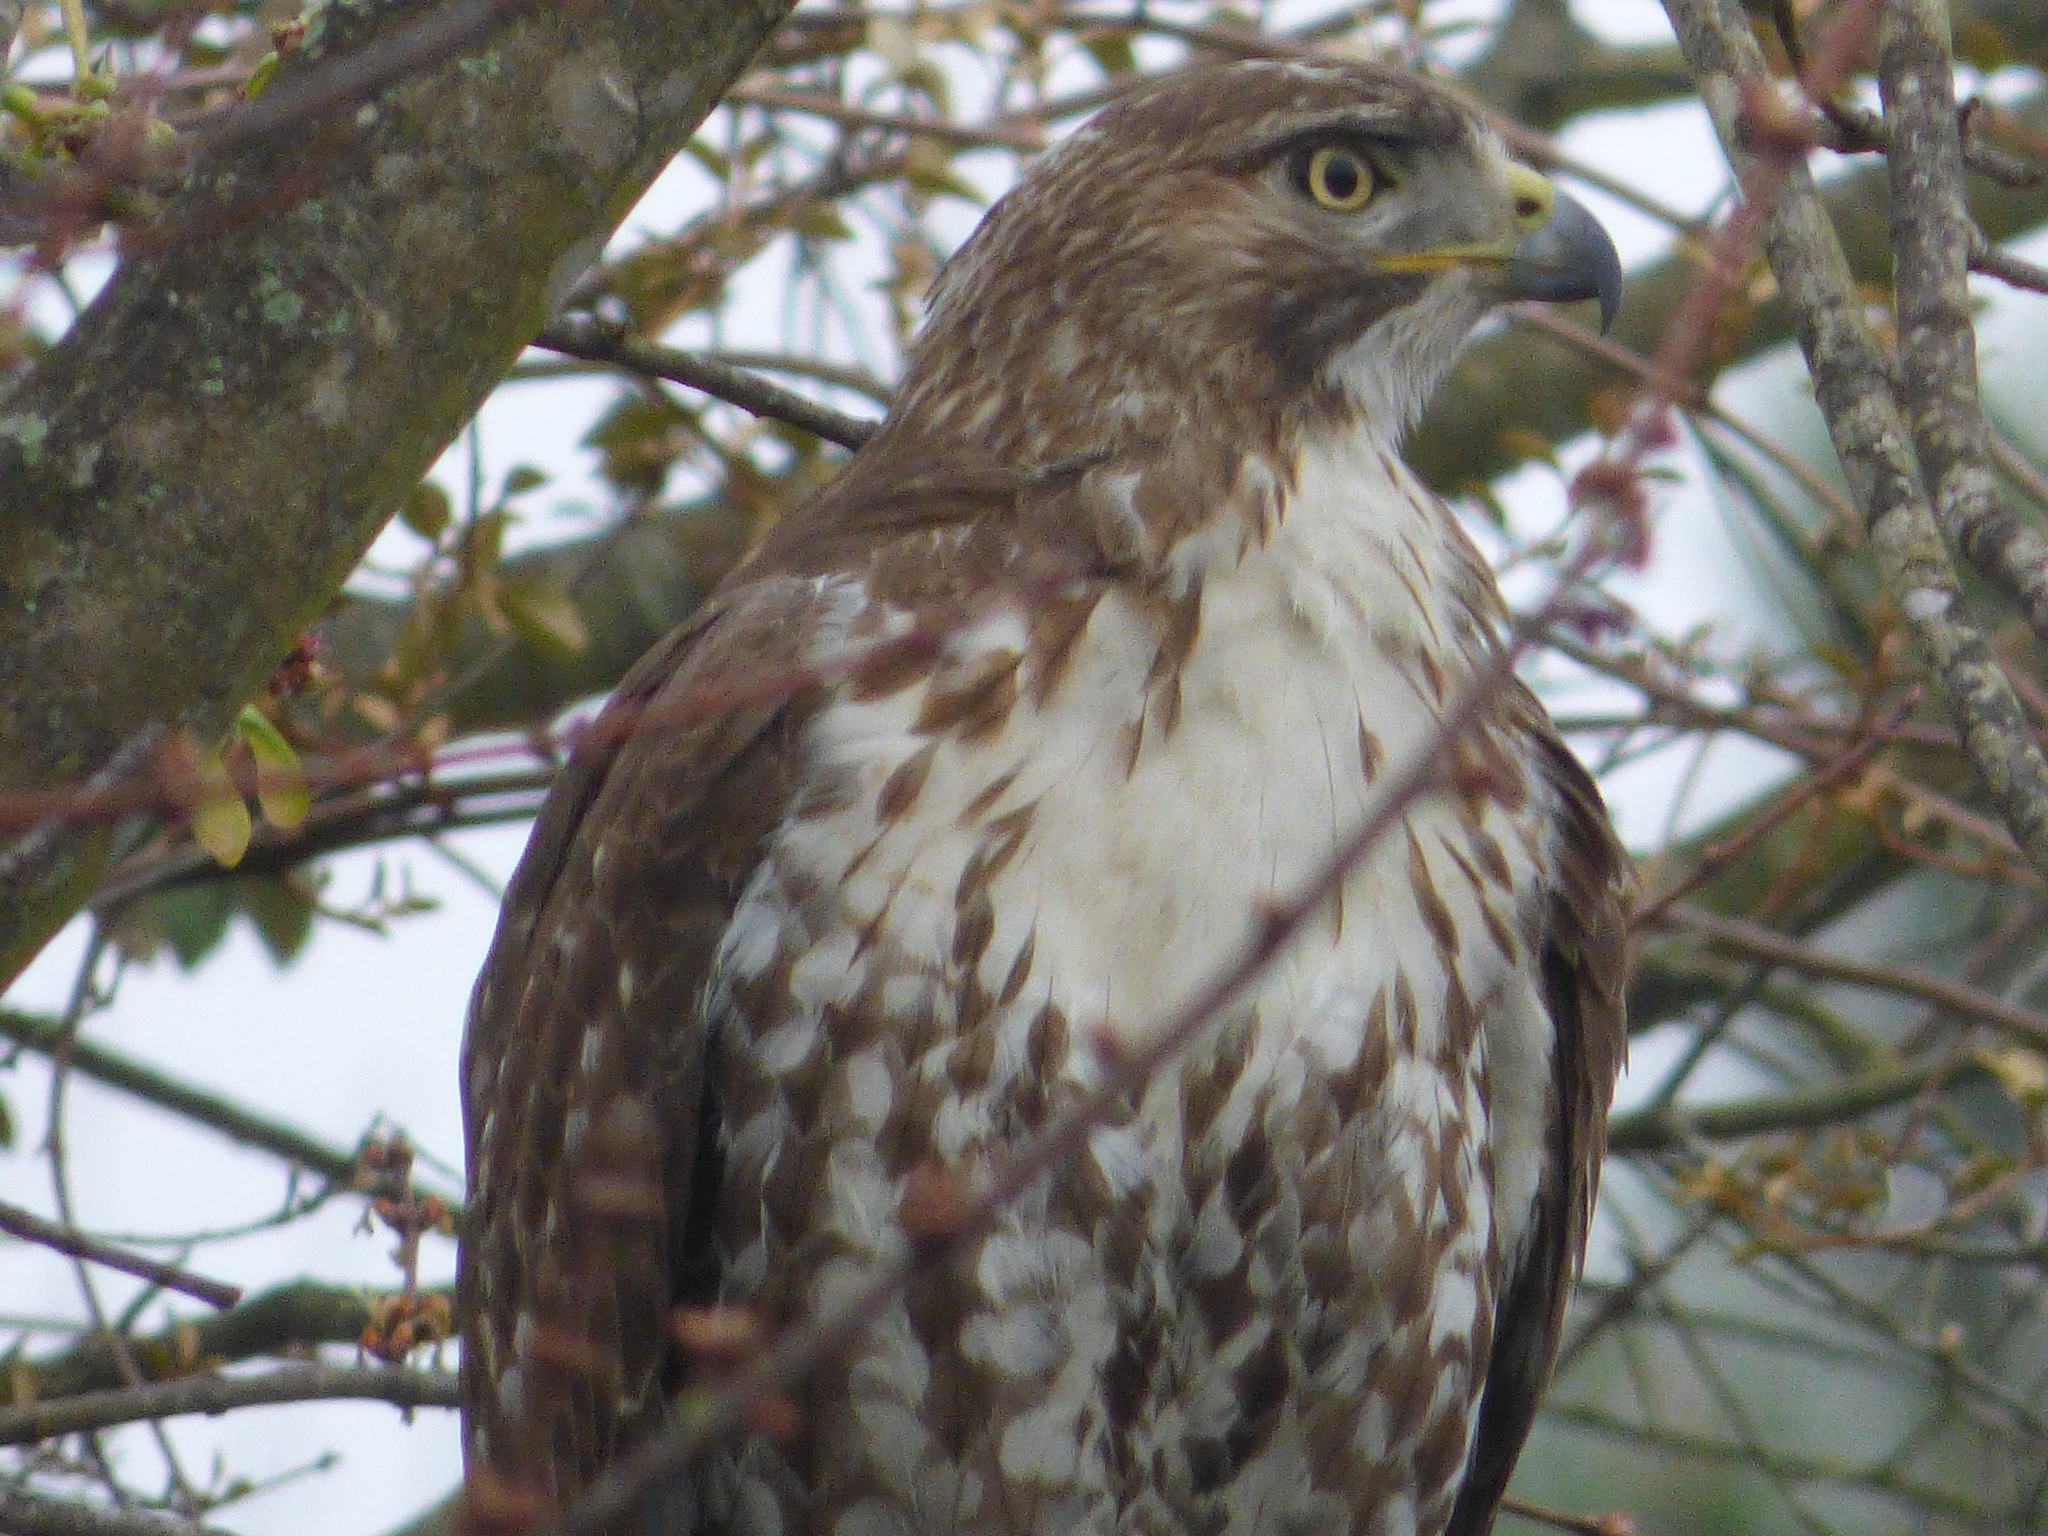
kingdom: Animalia
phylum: Chordata
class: Aves
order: Accipitriformes
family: Accipitridae
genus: Buteo
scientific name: Buteo jamaicensis
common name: Red-tailed hawk
